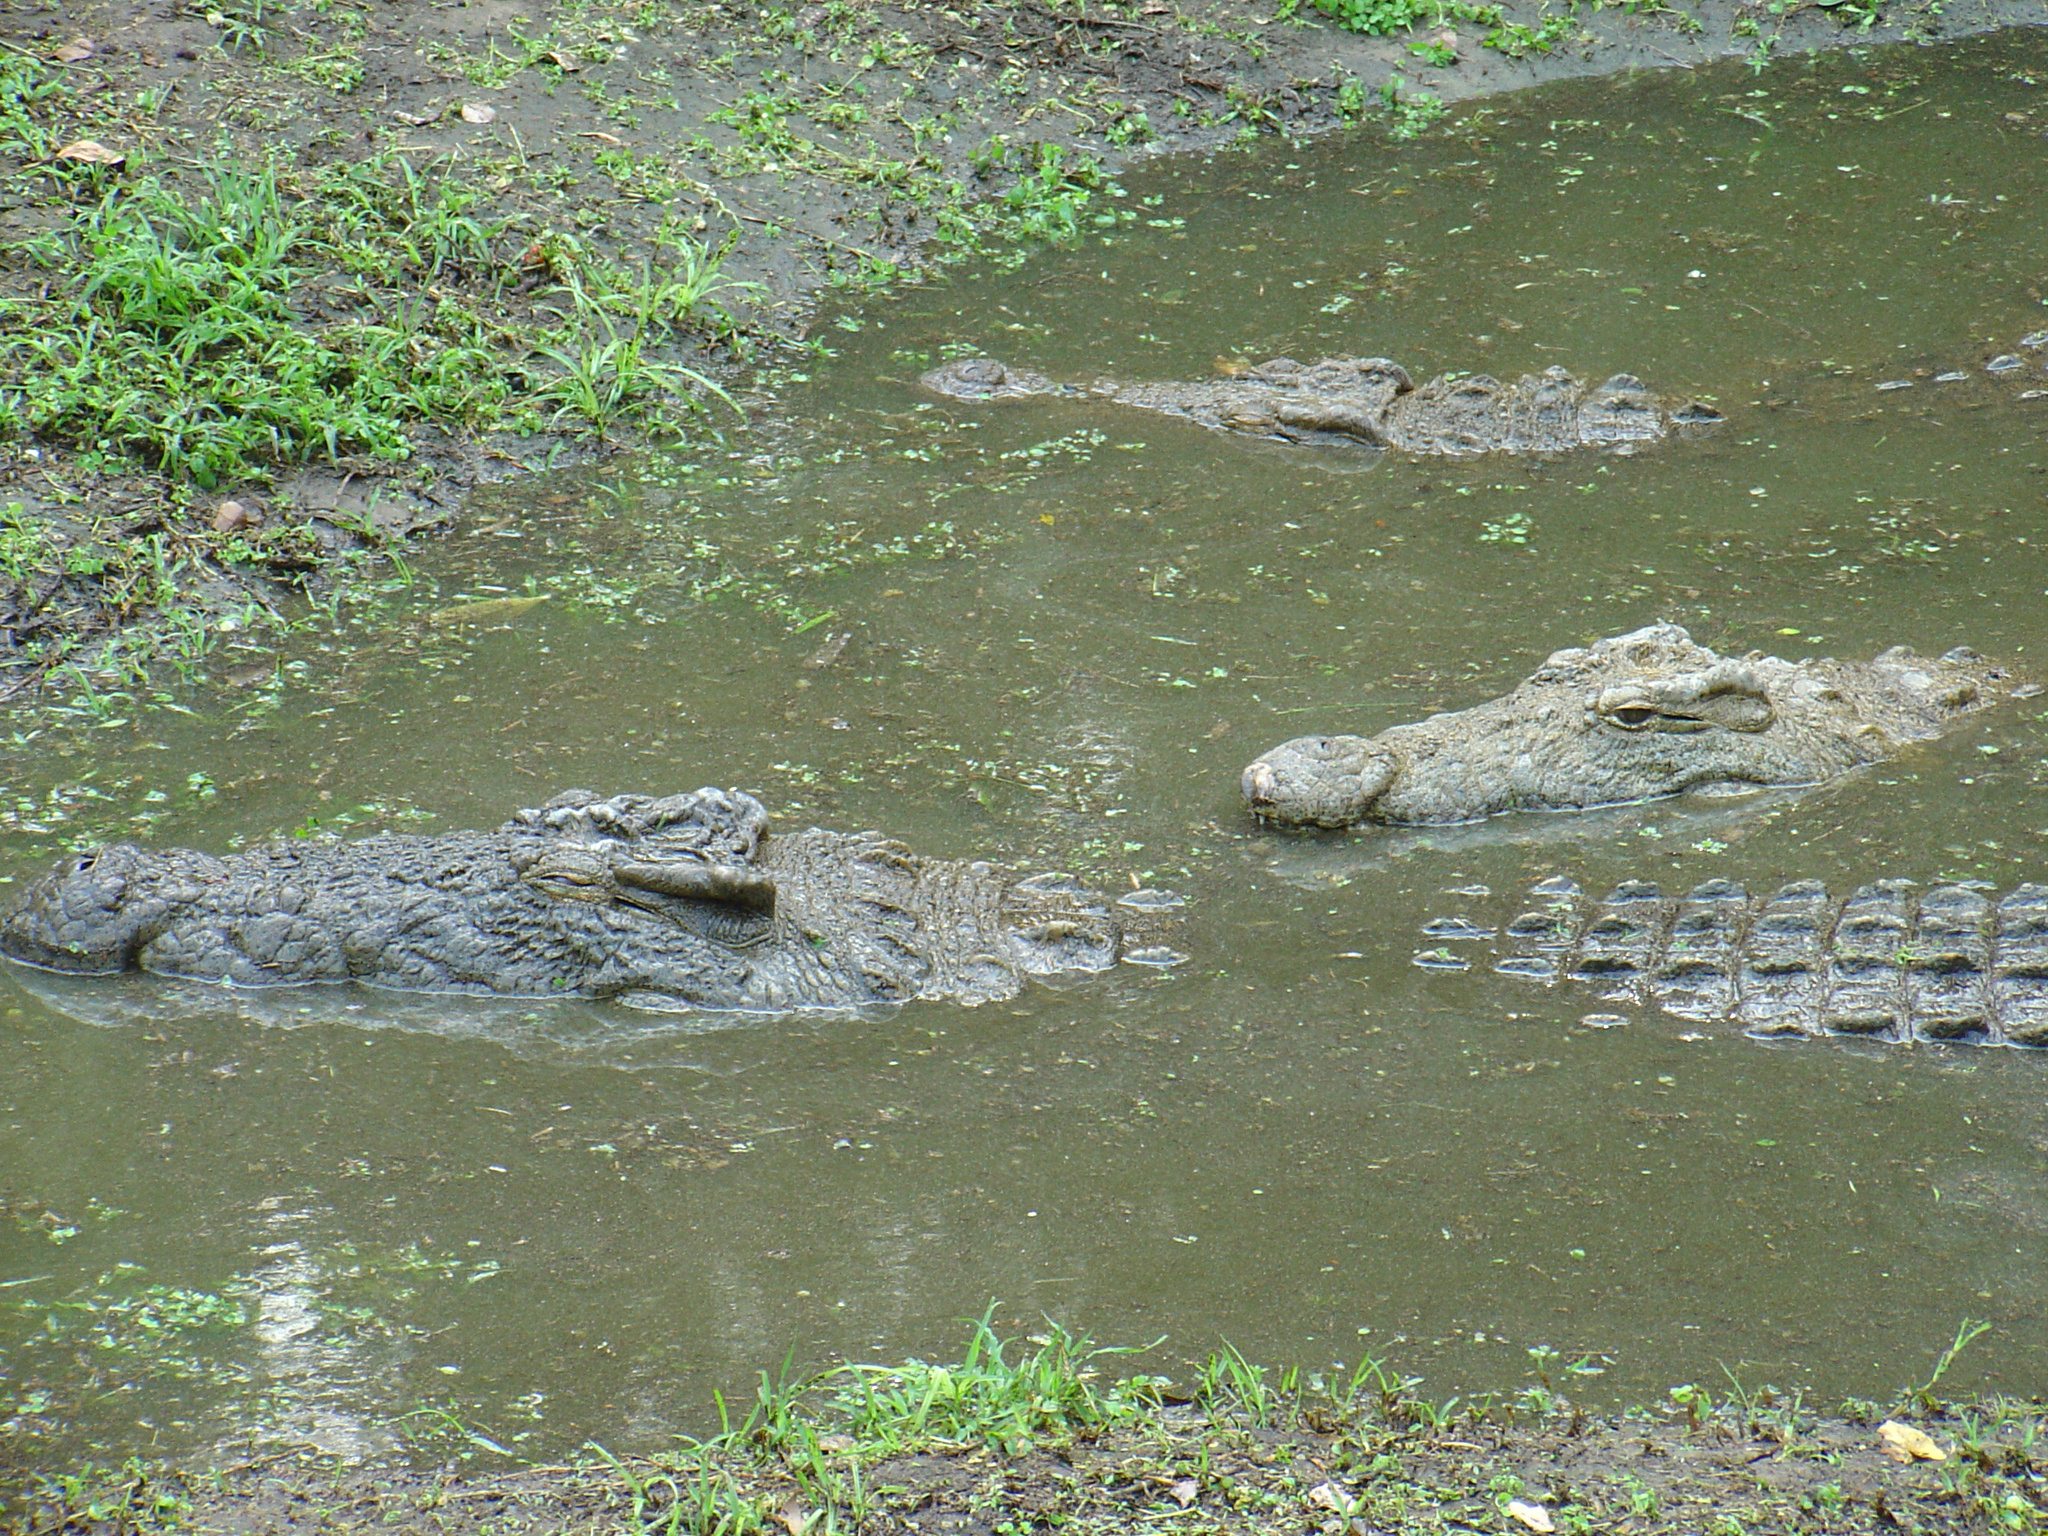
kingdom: Animalia
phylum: Chordata
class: Crocodylia
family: Crocodylidae
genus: Crocodylus
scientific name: Crocodylus niloticus
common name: Nile crocodile
